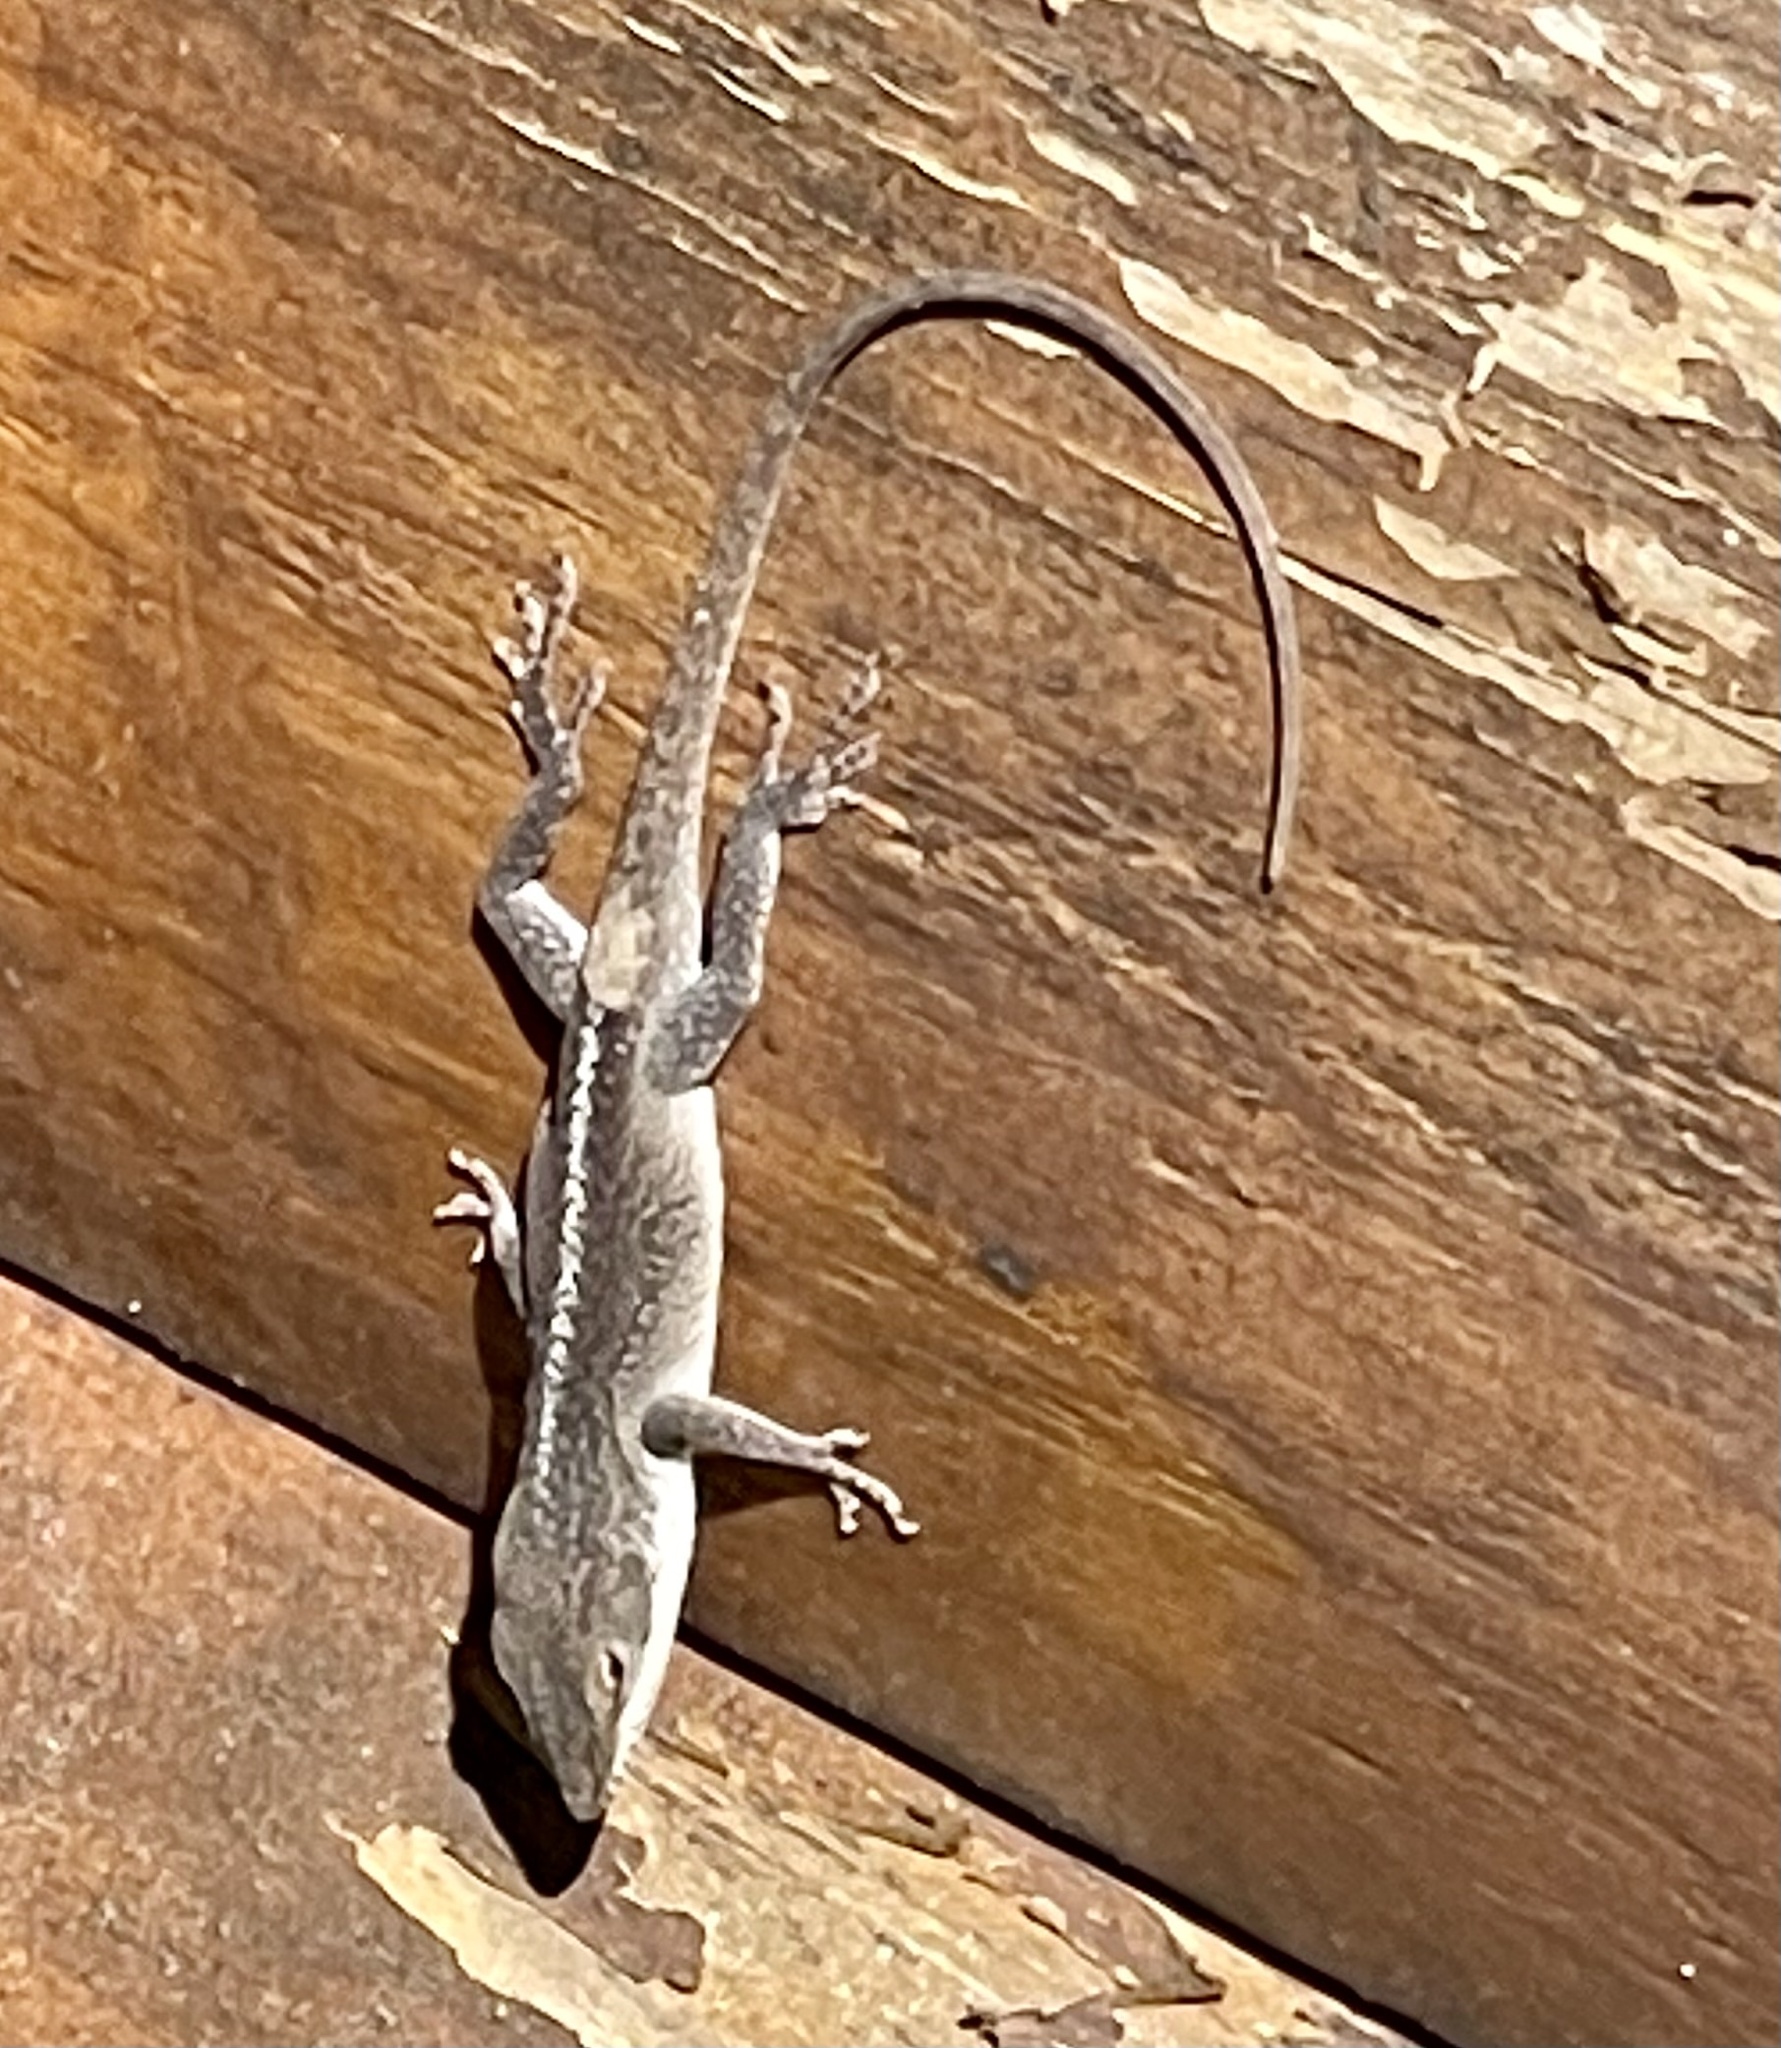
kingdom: Animalia
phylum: Chordata
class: Squamata
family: Dactyloidae
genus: Anolis
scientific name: Anolis carolinensis
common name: Green anole
